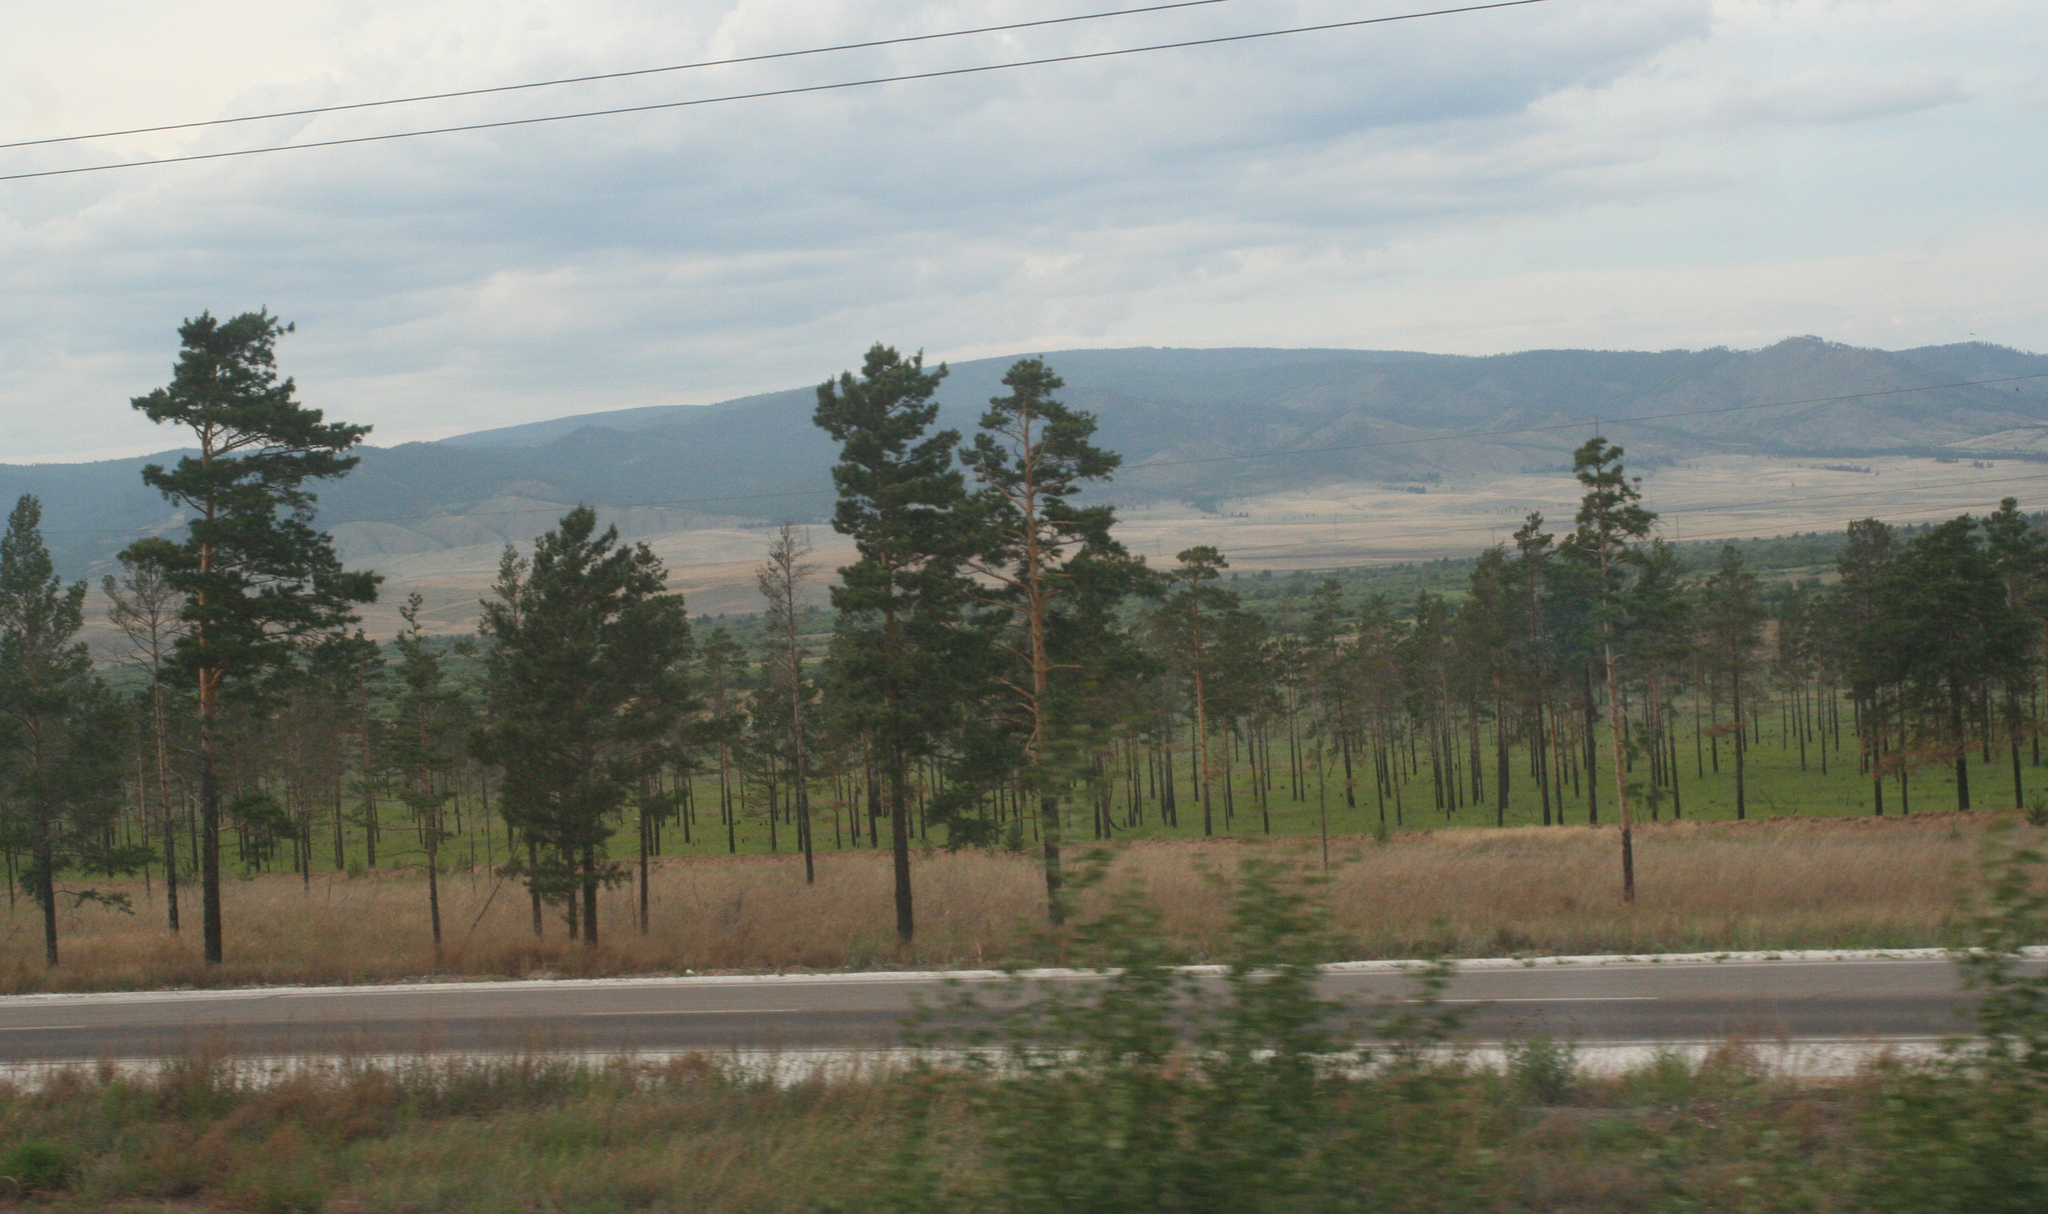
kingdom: Plantae
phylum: Tracheophyta
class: Pinopsida
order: Pinales
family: Pinaceae
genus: Pinus
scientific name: Pinus sylvestris
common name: Scots pine
